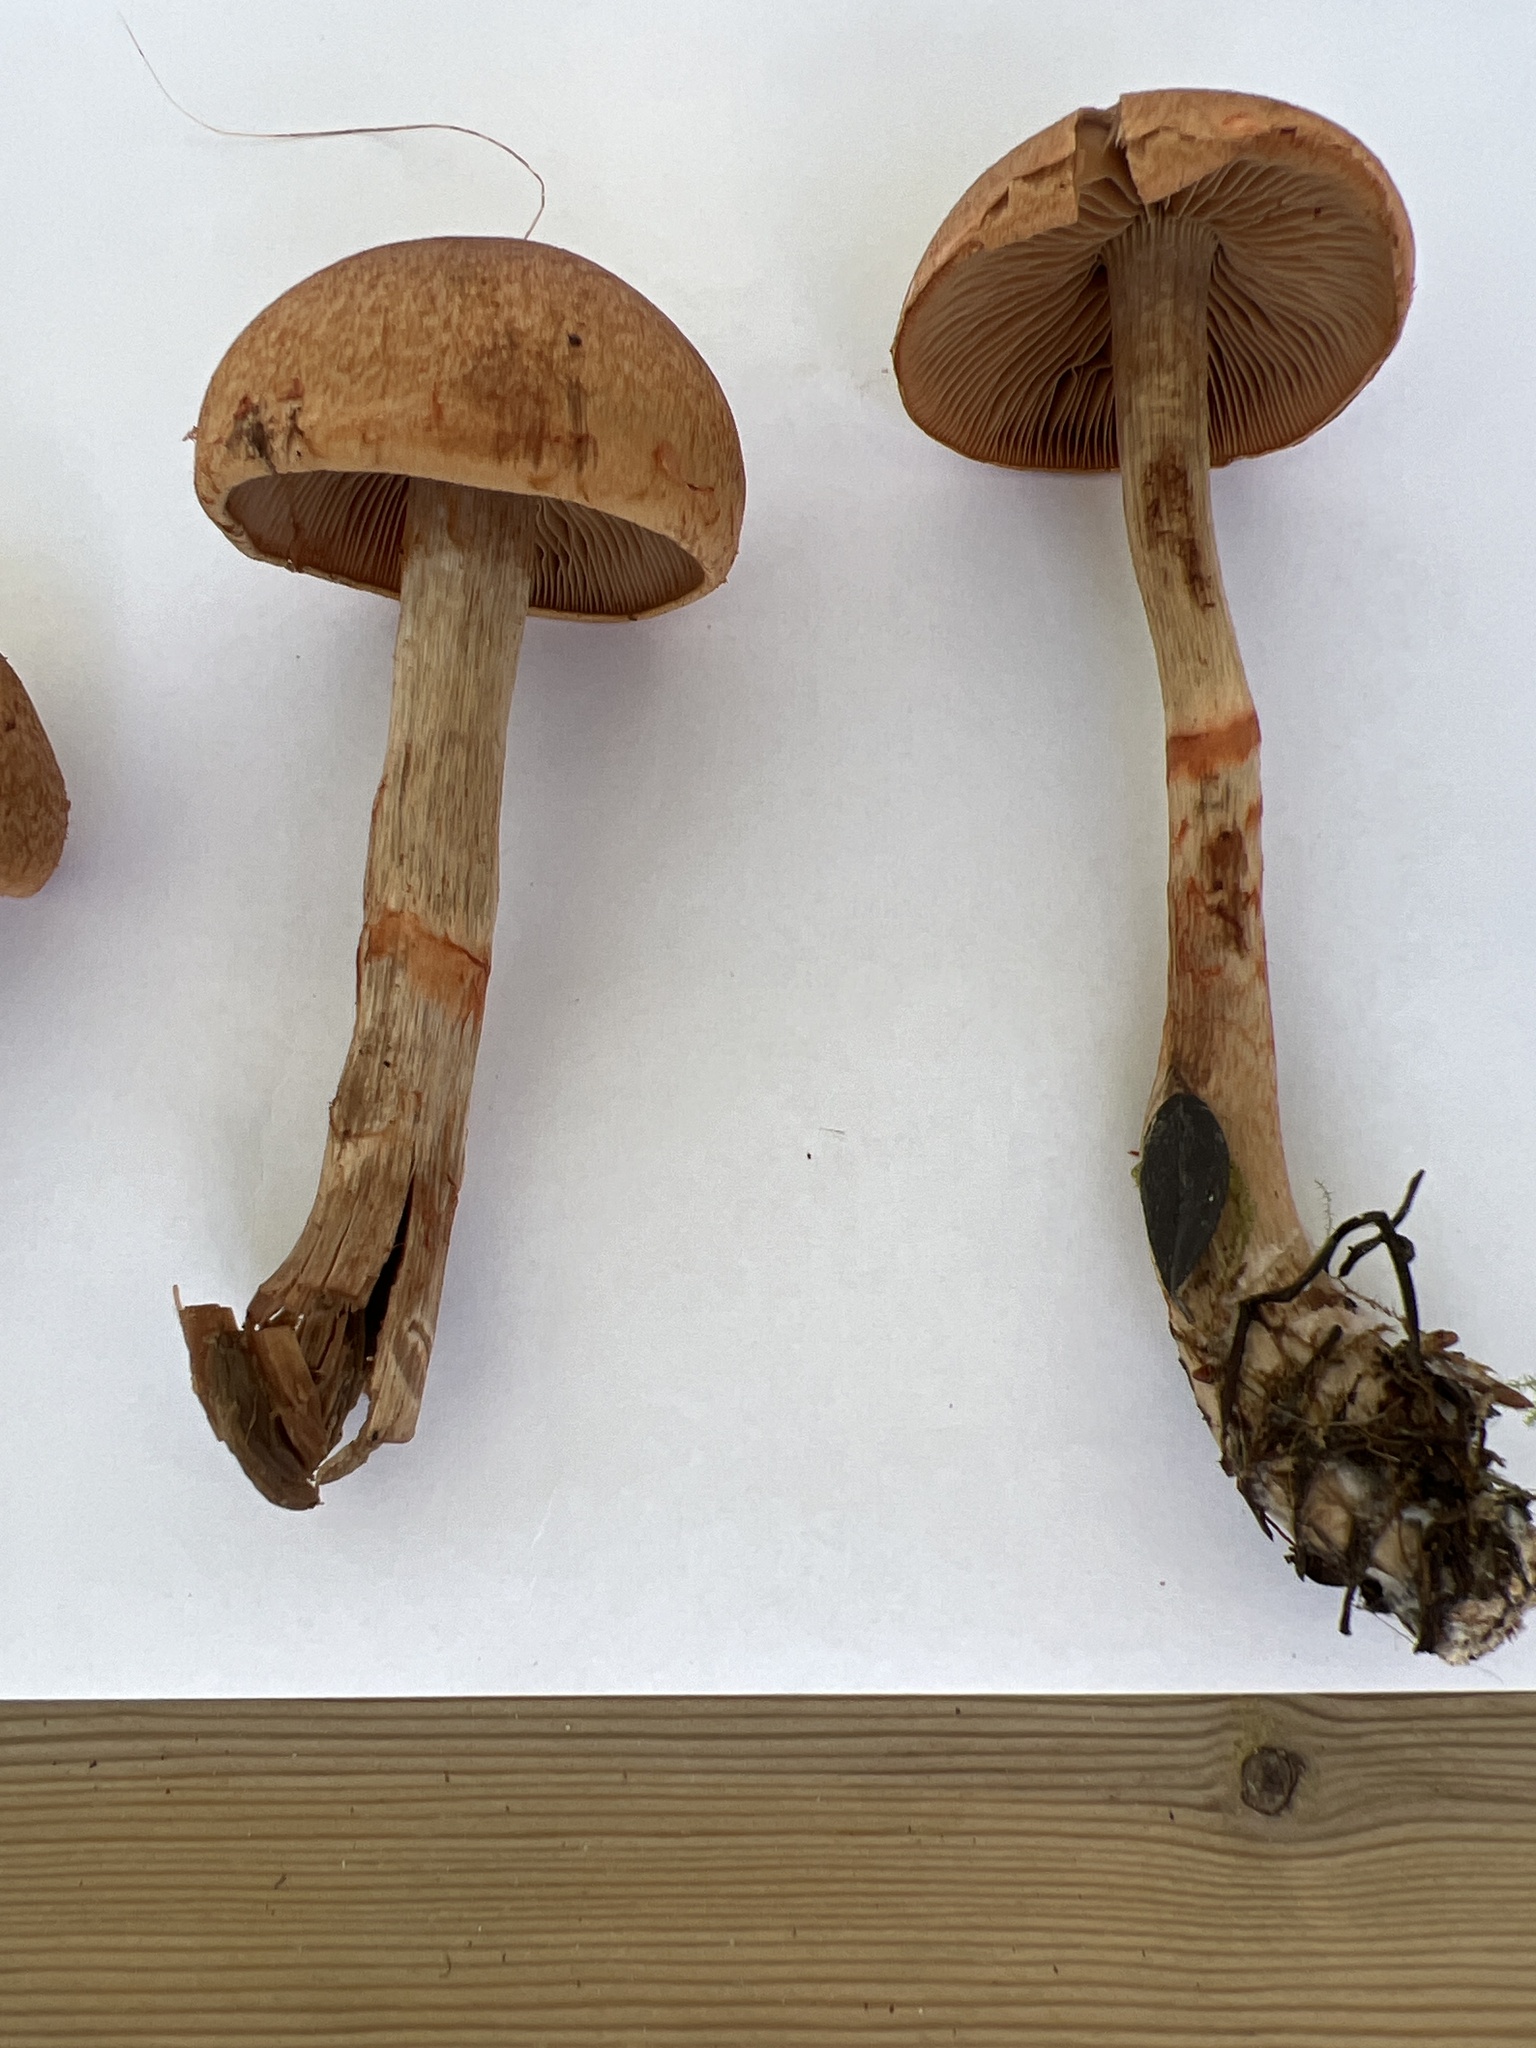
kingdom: Fungi
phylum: Basidiomycota
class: Agaricomycetes
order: Agaricales
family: Cortinariaceae
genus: Cortinarius
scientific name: Cortinarius armillatus
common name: Red banded webcap
